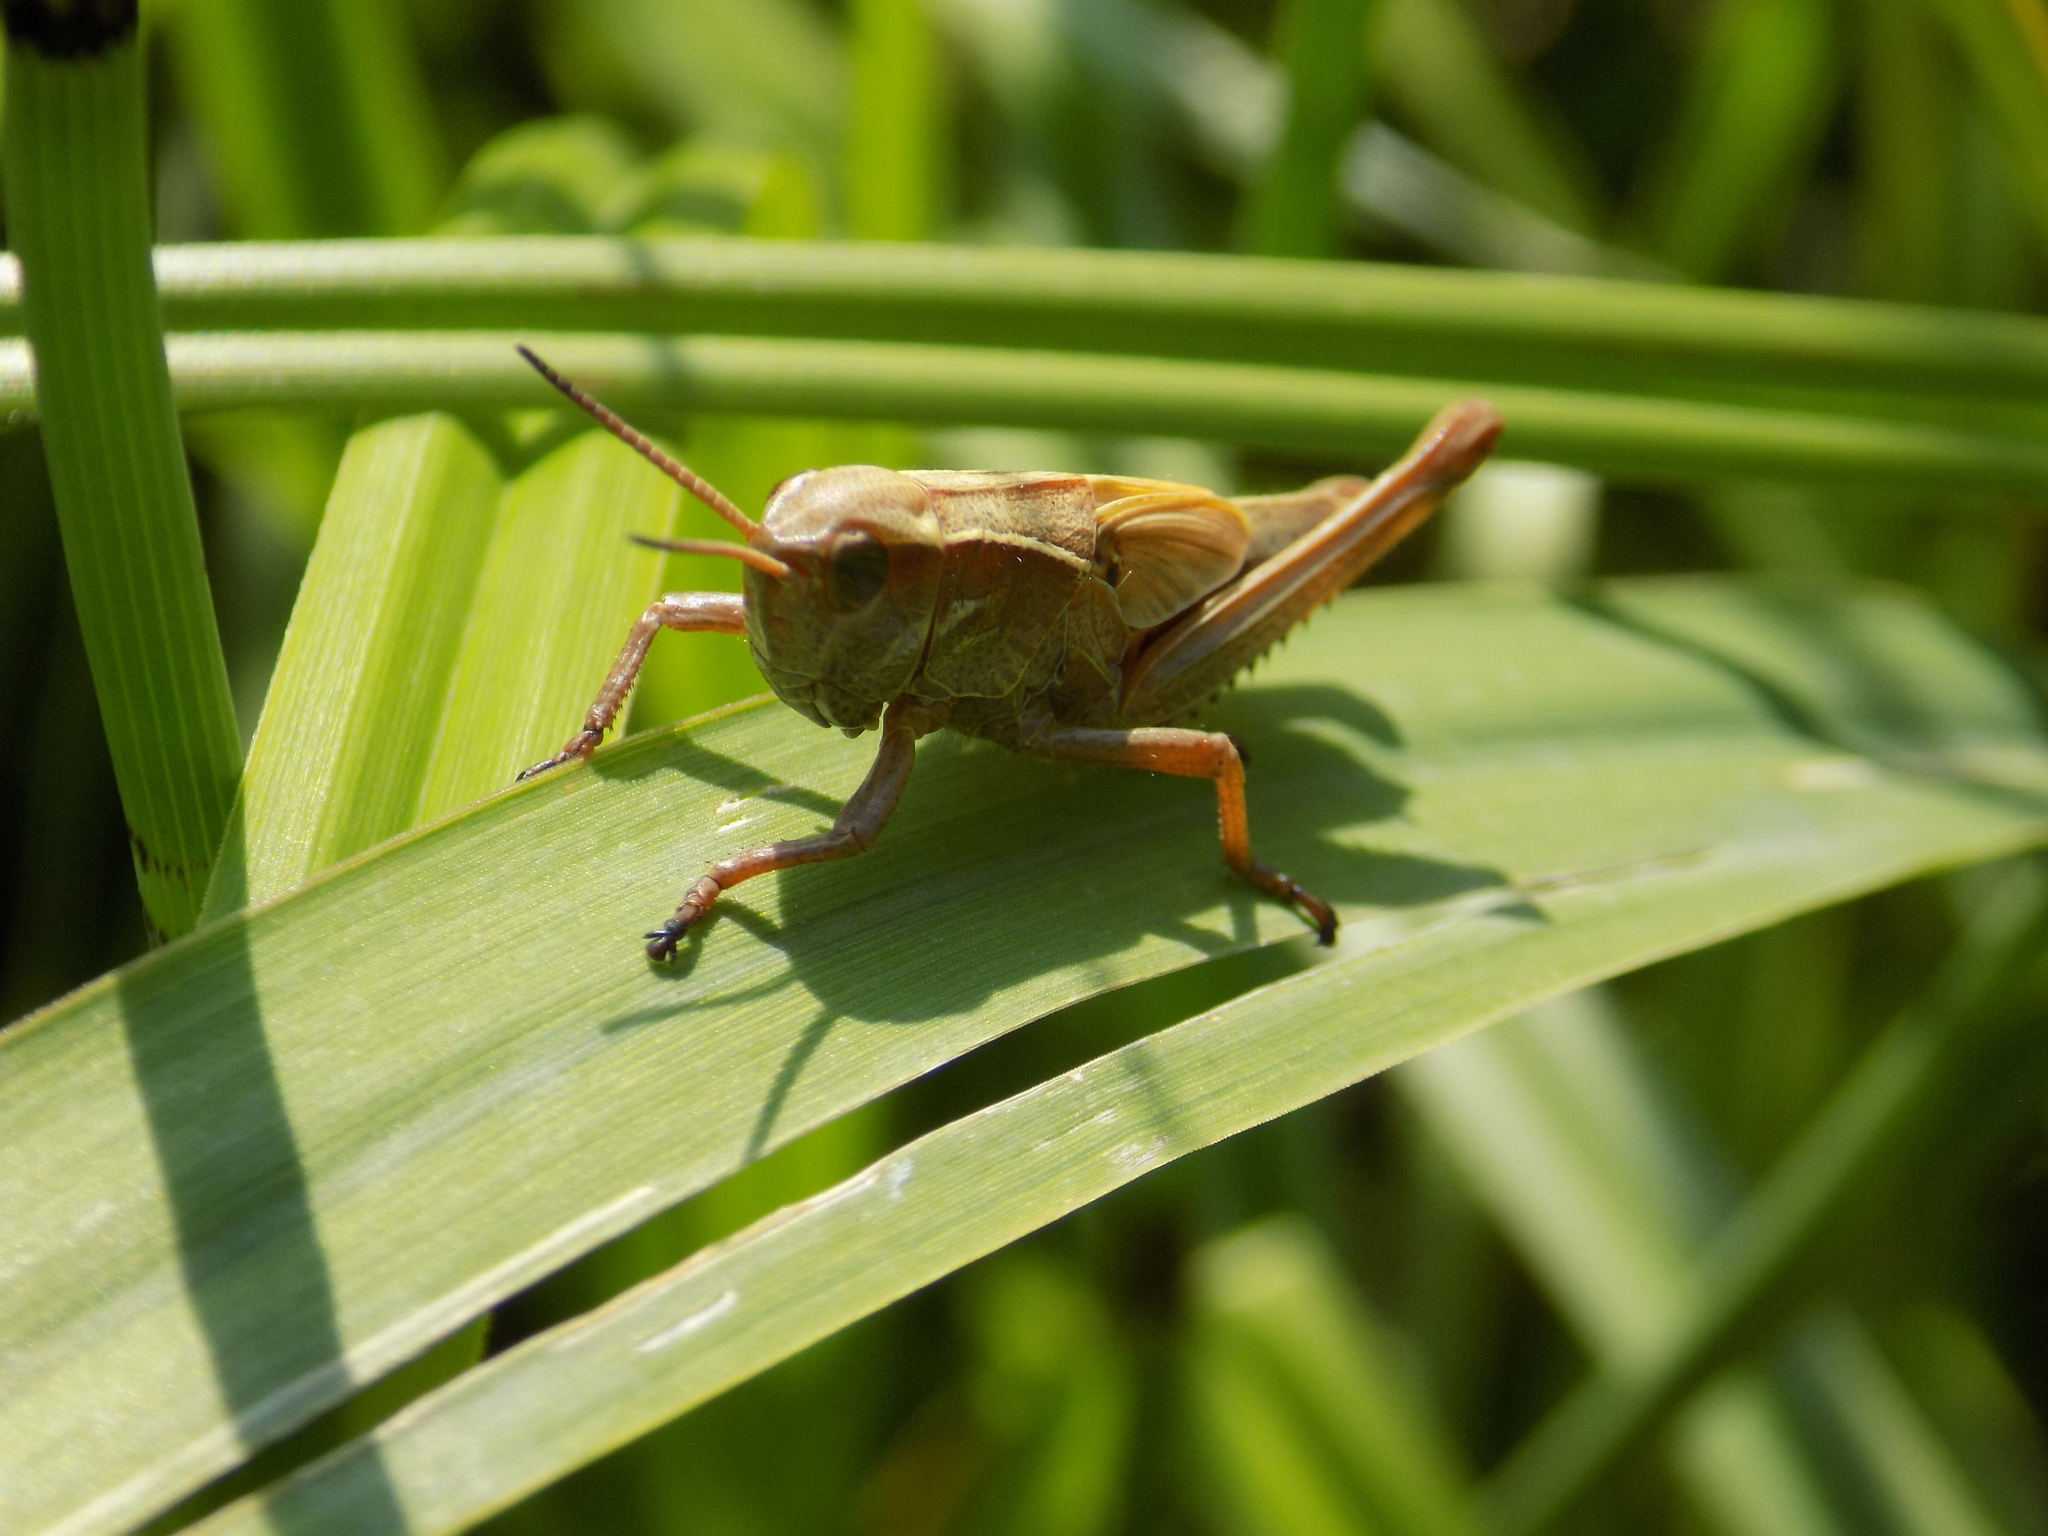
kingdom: Animalia
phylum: Arthropoda
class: Insecta
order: Orthoptera
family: Acrididae
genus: Stethophyma
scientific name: Stethophyma grossum
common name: Large marsh grasshopper
